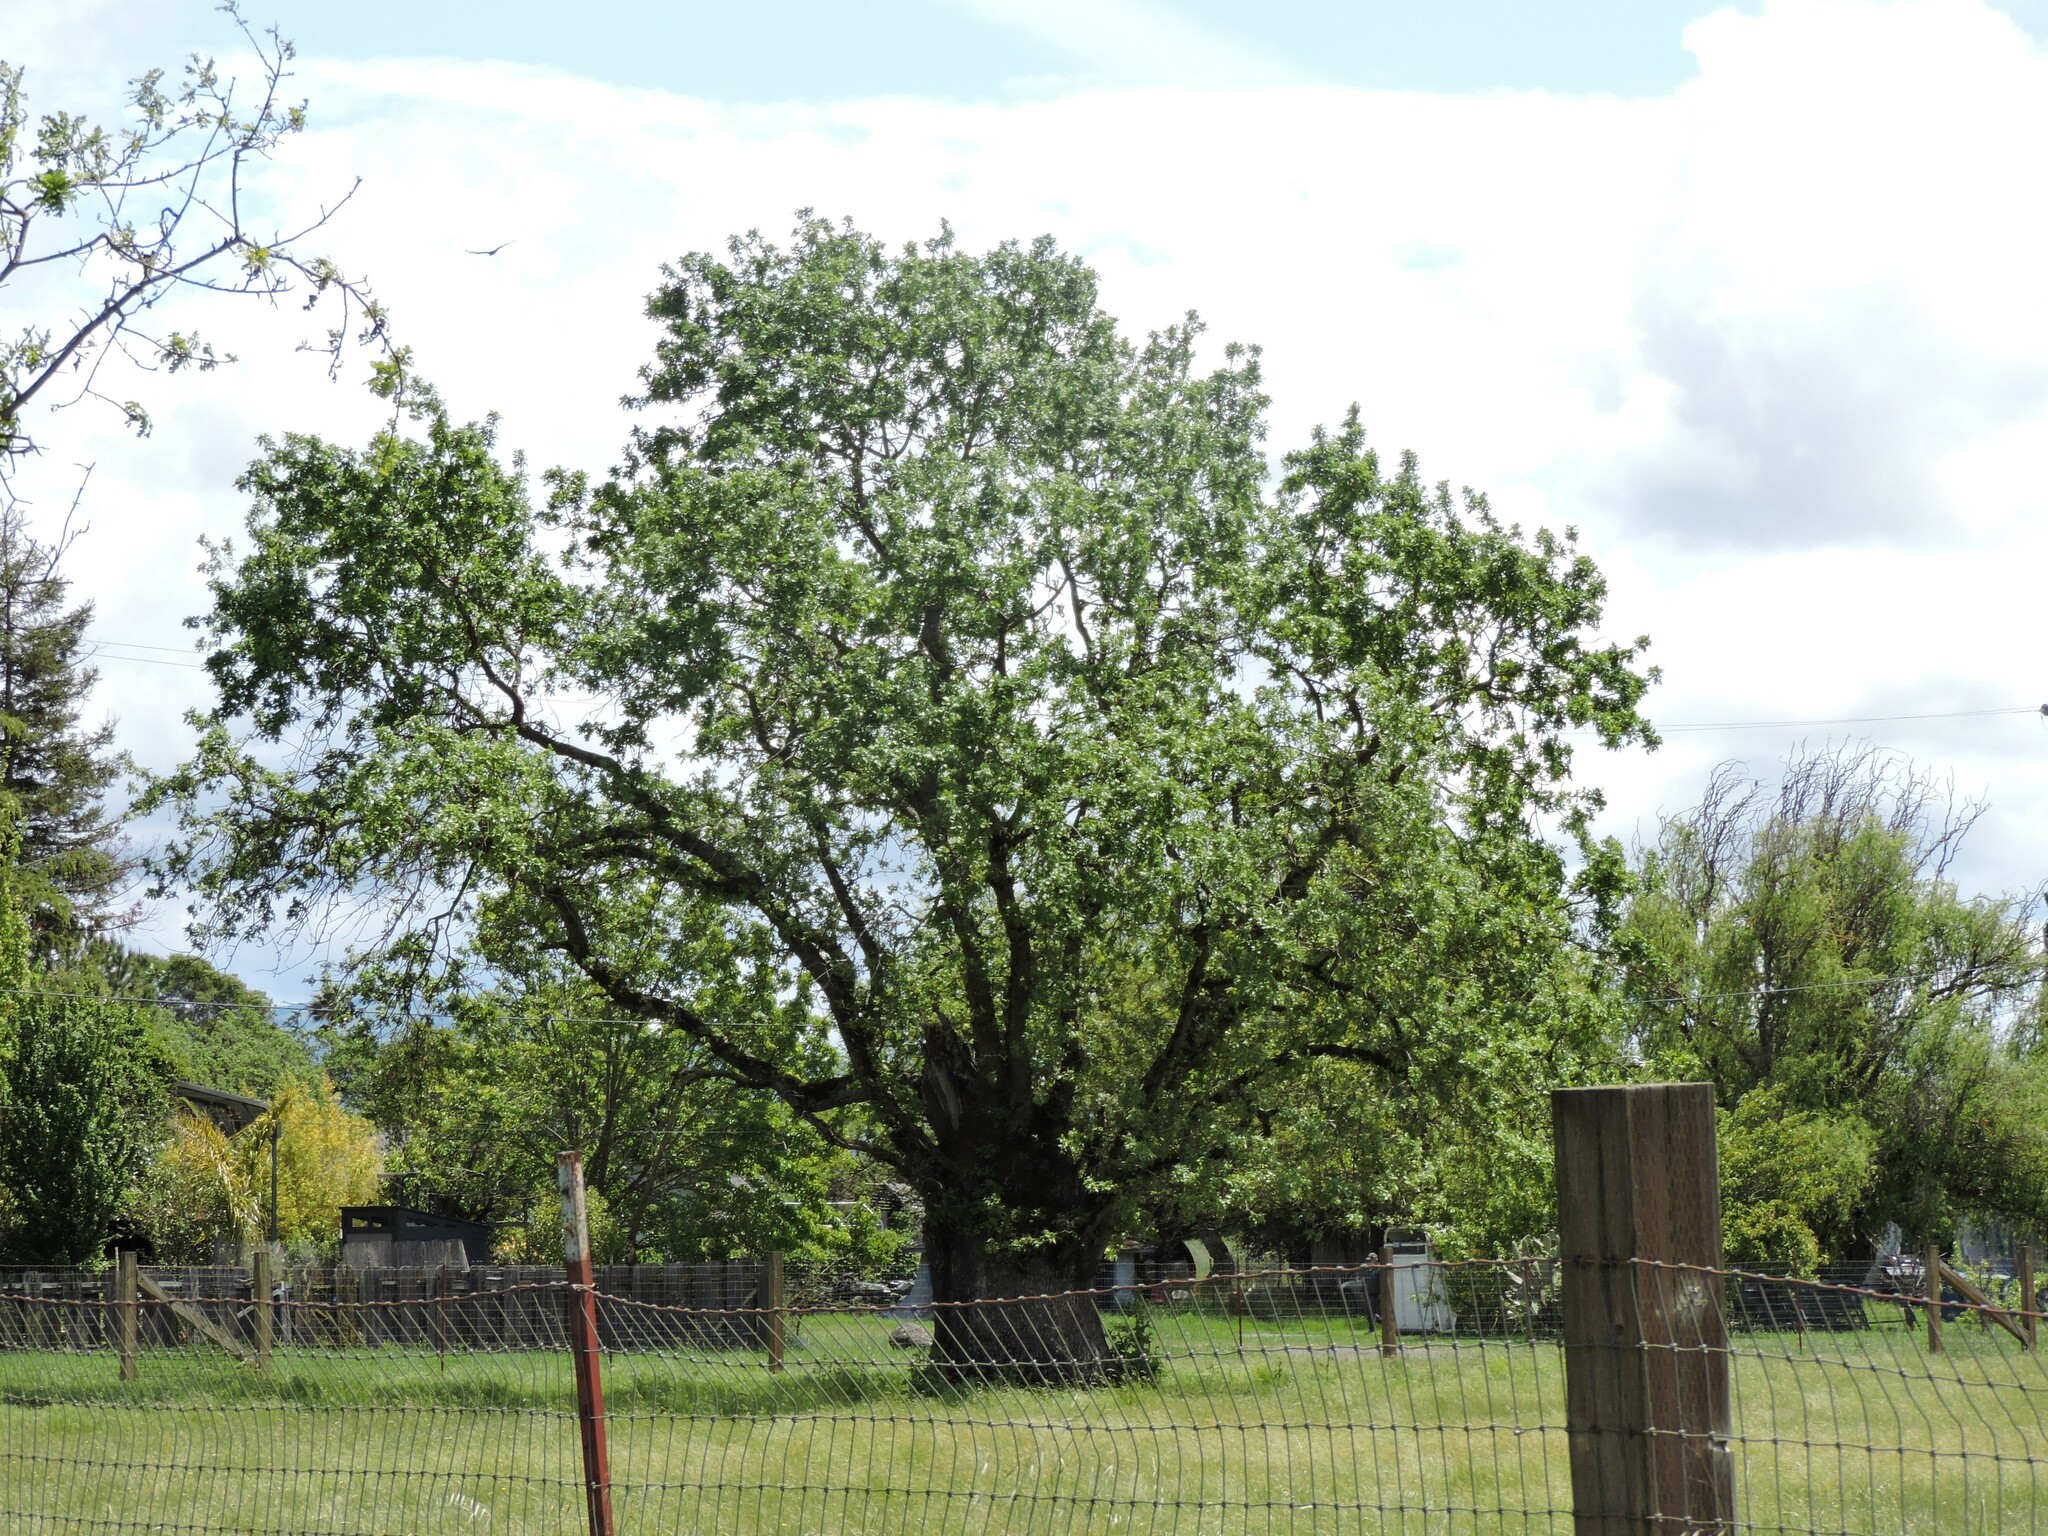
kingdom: Plantae
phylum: Tracheophyta
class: Magnoliopsida
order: Fagales
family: Fagaceae
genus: Quercus
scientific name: Quercus lobata
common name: Valley oak
